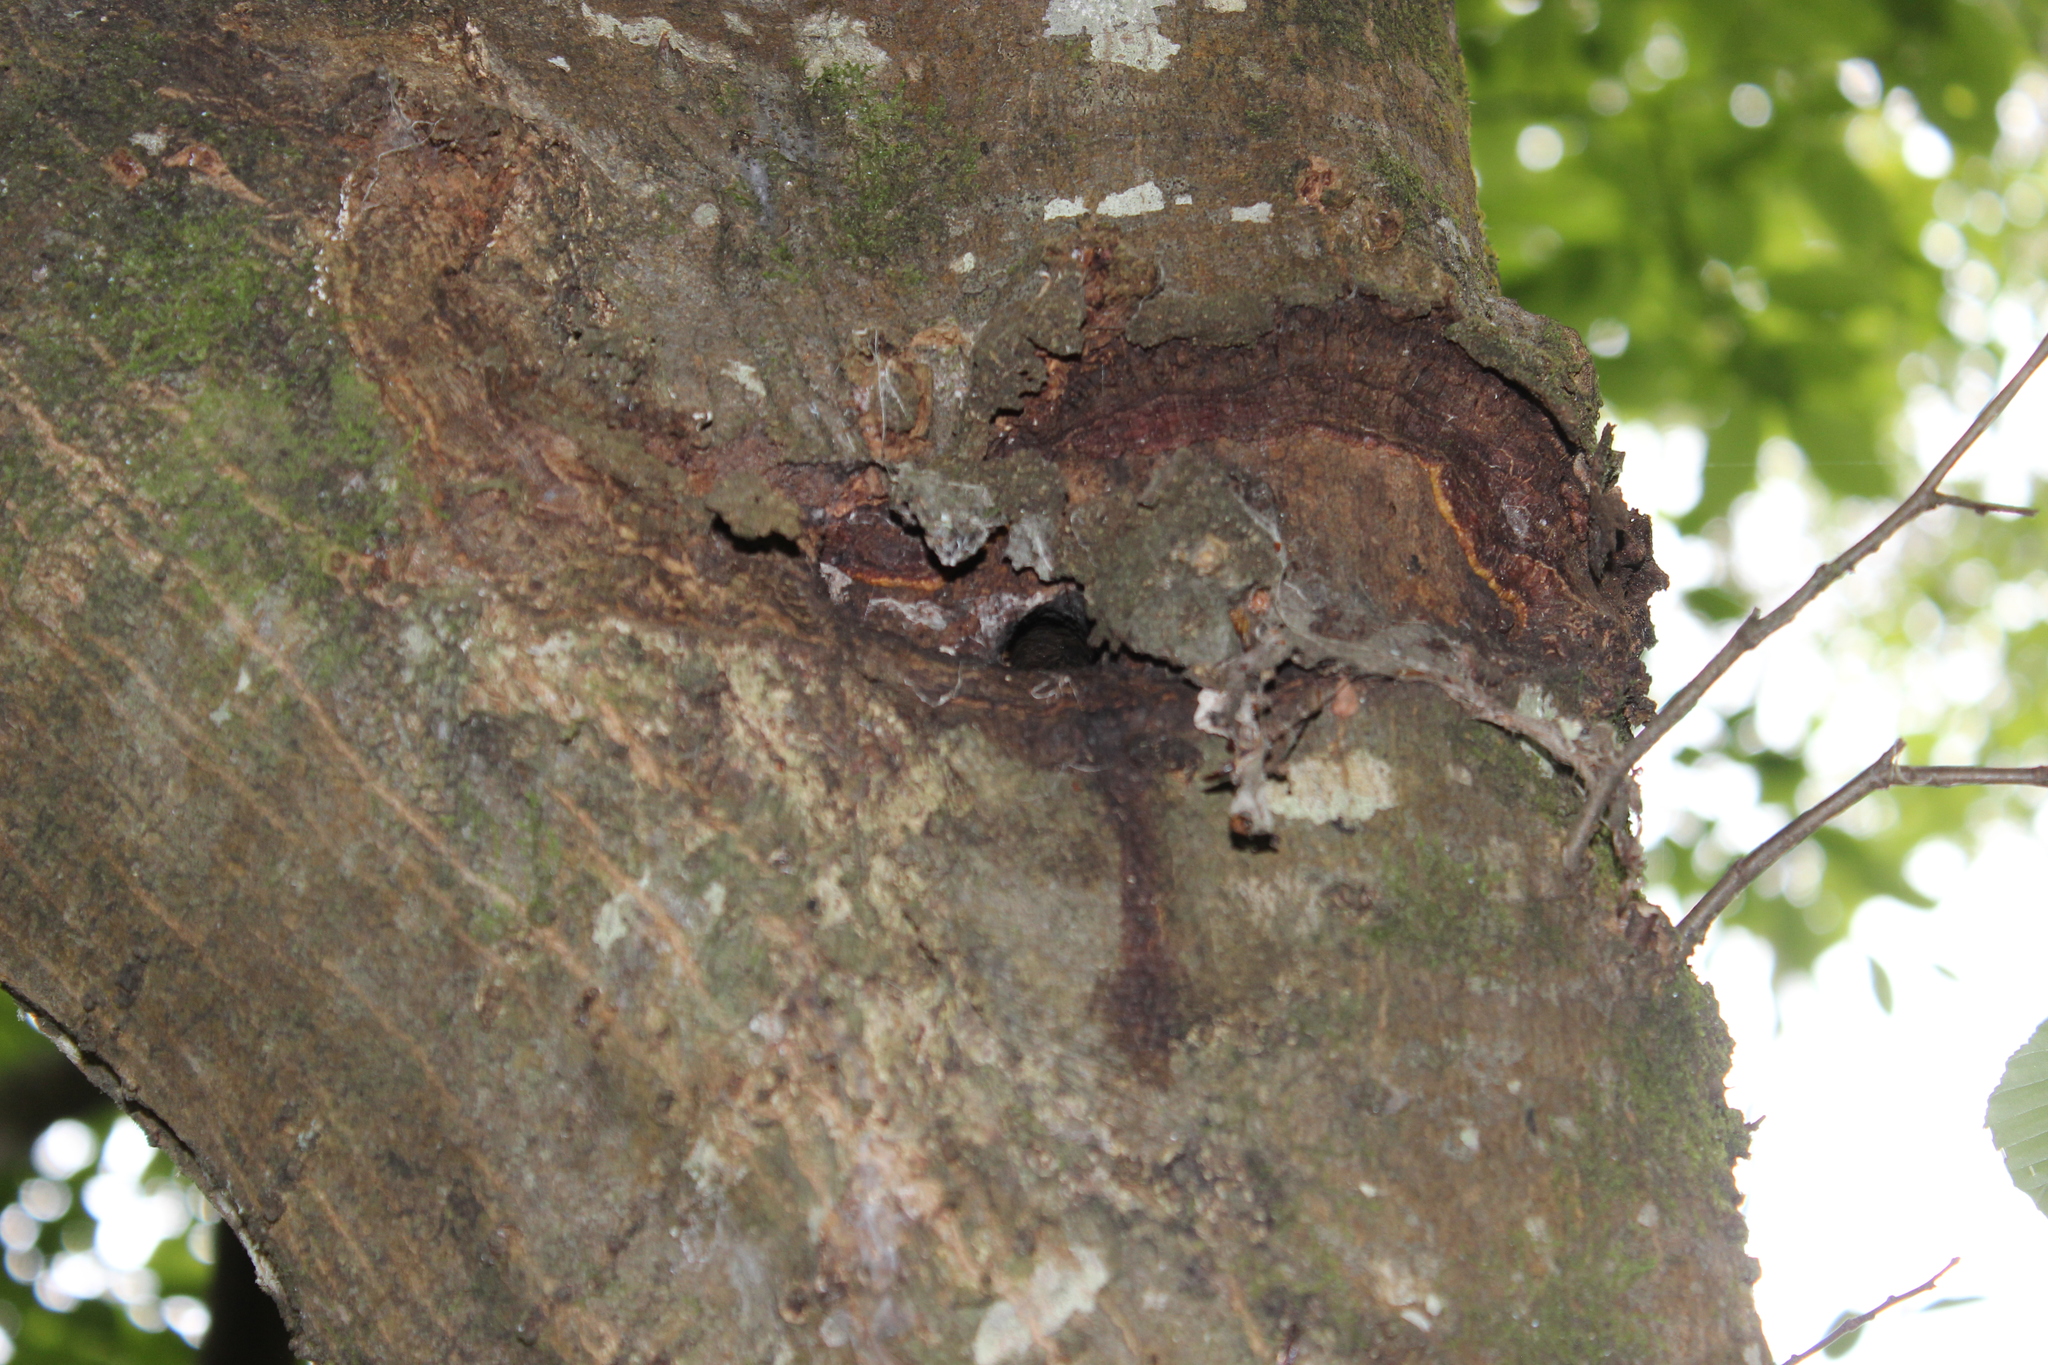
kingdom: Animalia
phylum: Arthropoda
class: Insecta
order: Lepidoptera
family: Hepialidae
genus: Aenetus
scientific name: Aenetus virescens
